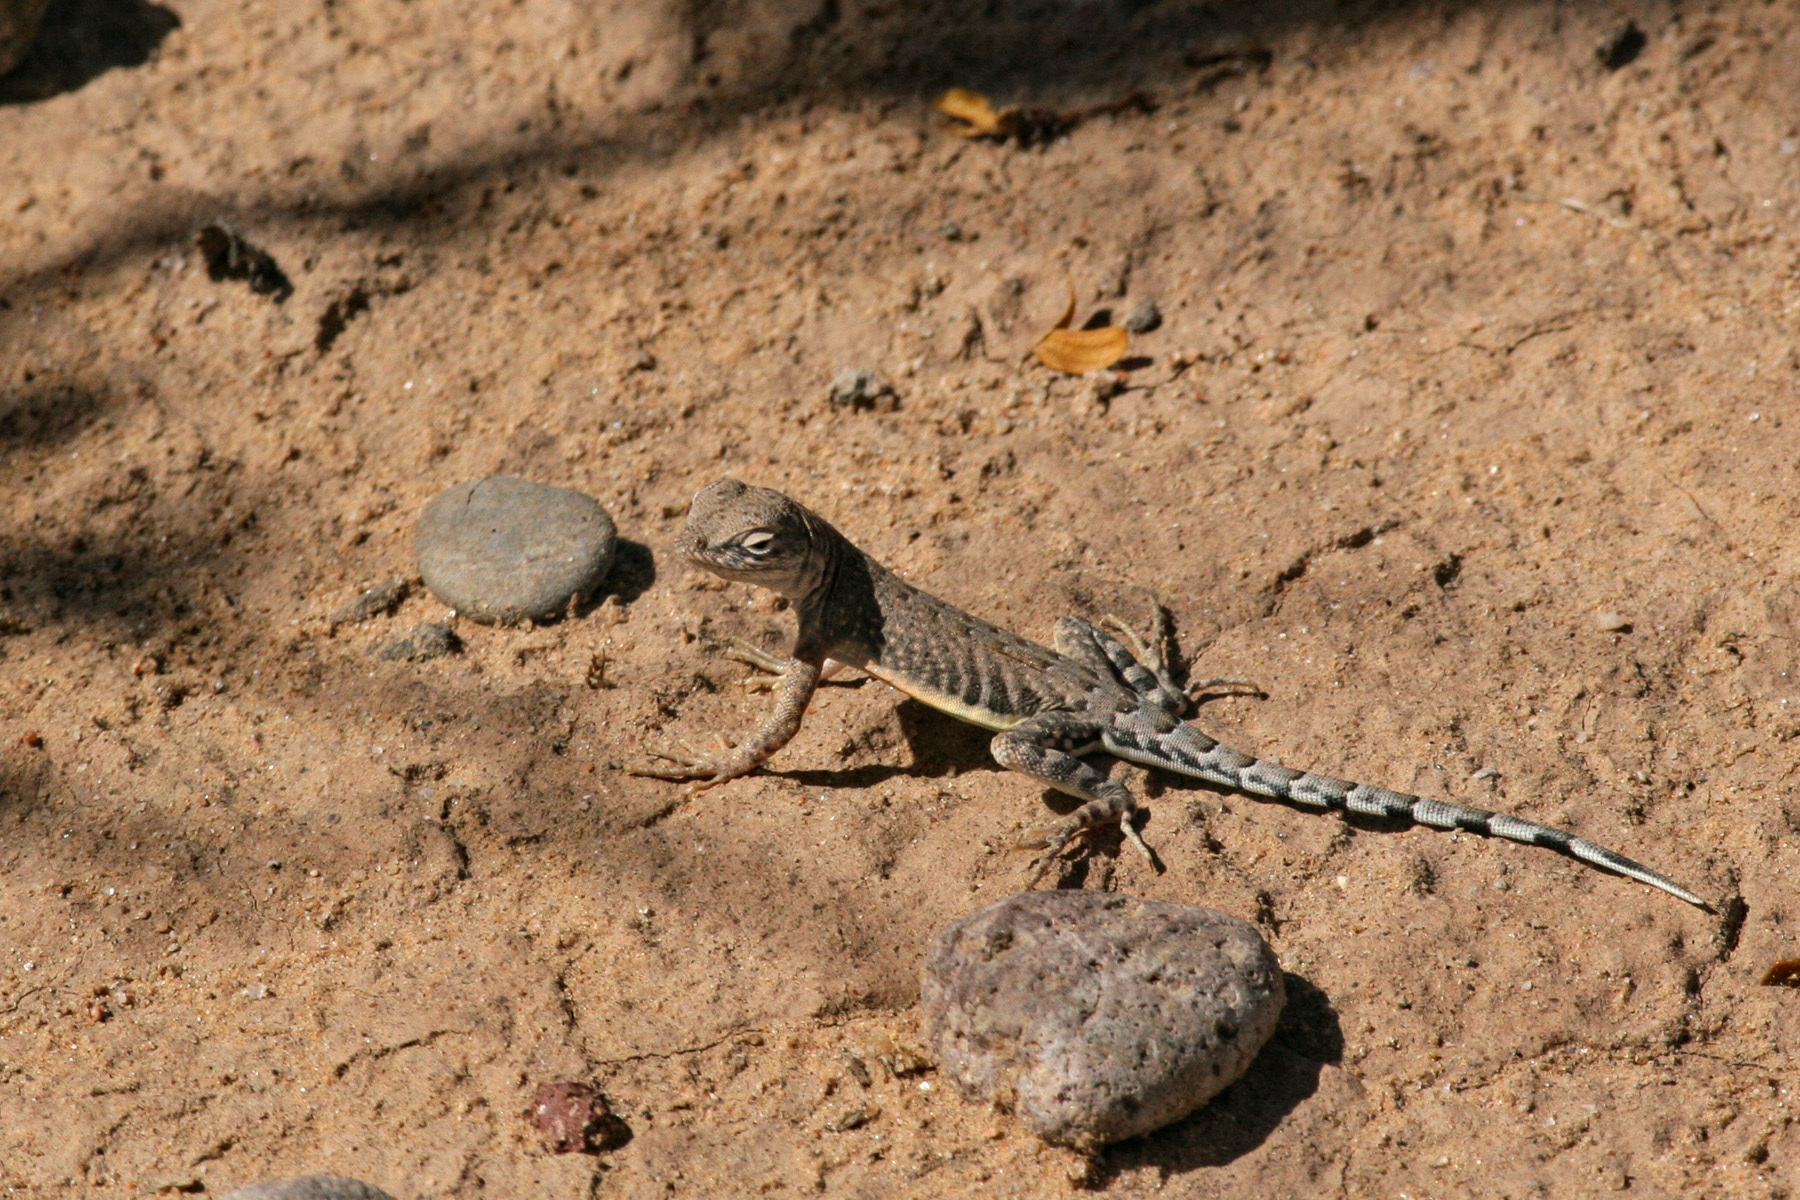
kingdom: Animalia
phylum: Chordata
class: Squamata
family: Phrynosomatidae
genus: Cophosaurus
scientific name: Cophosaurus texanus
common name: Greater earless lizard
